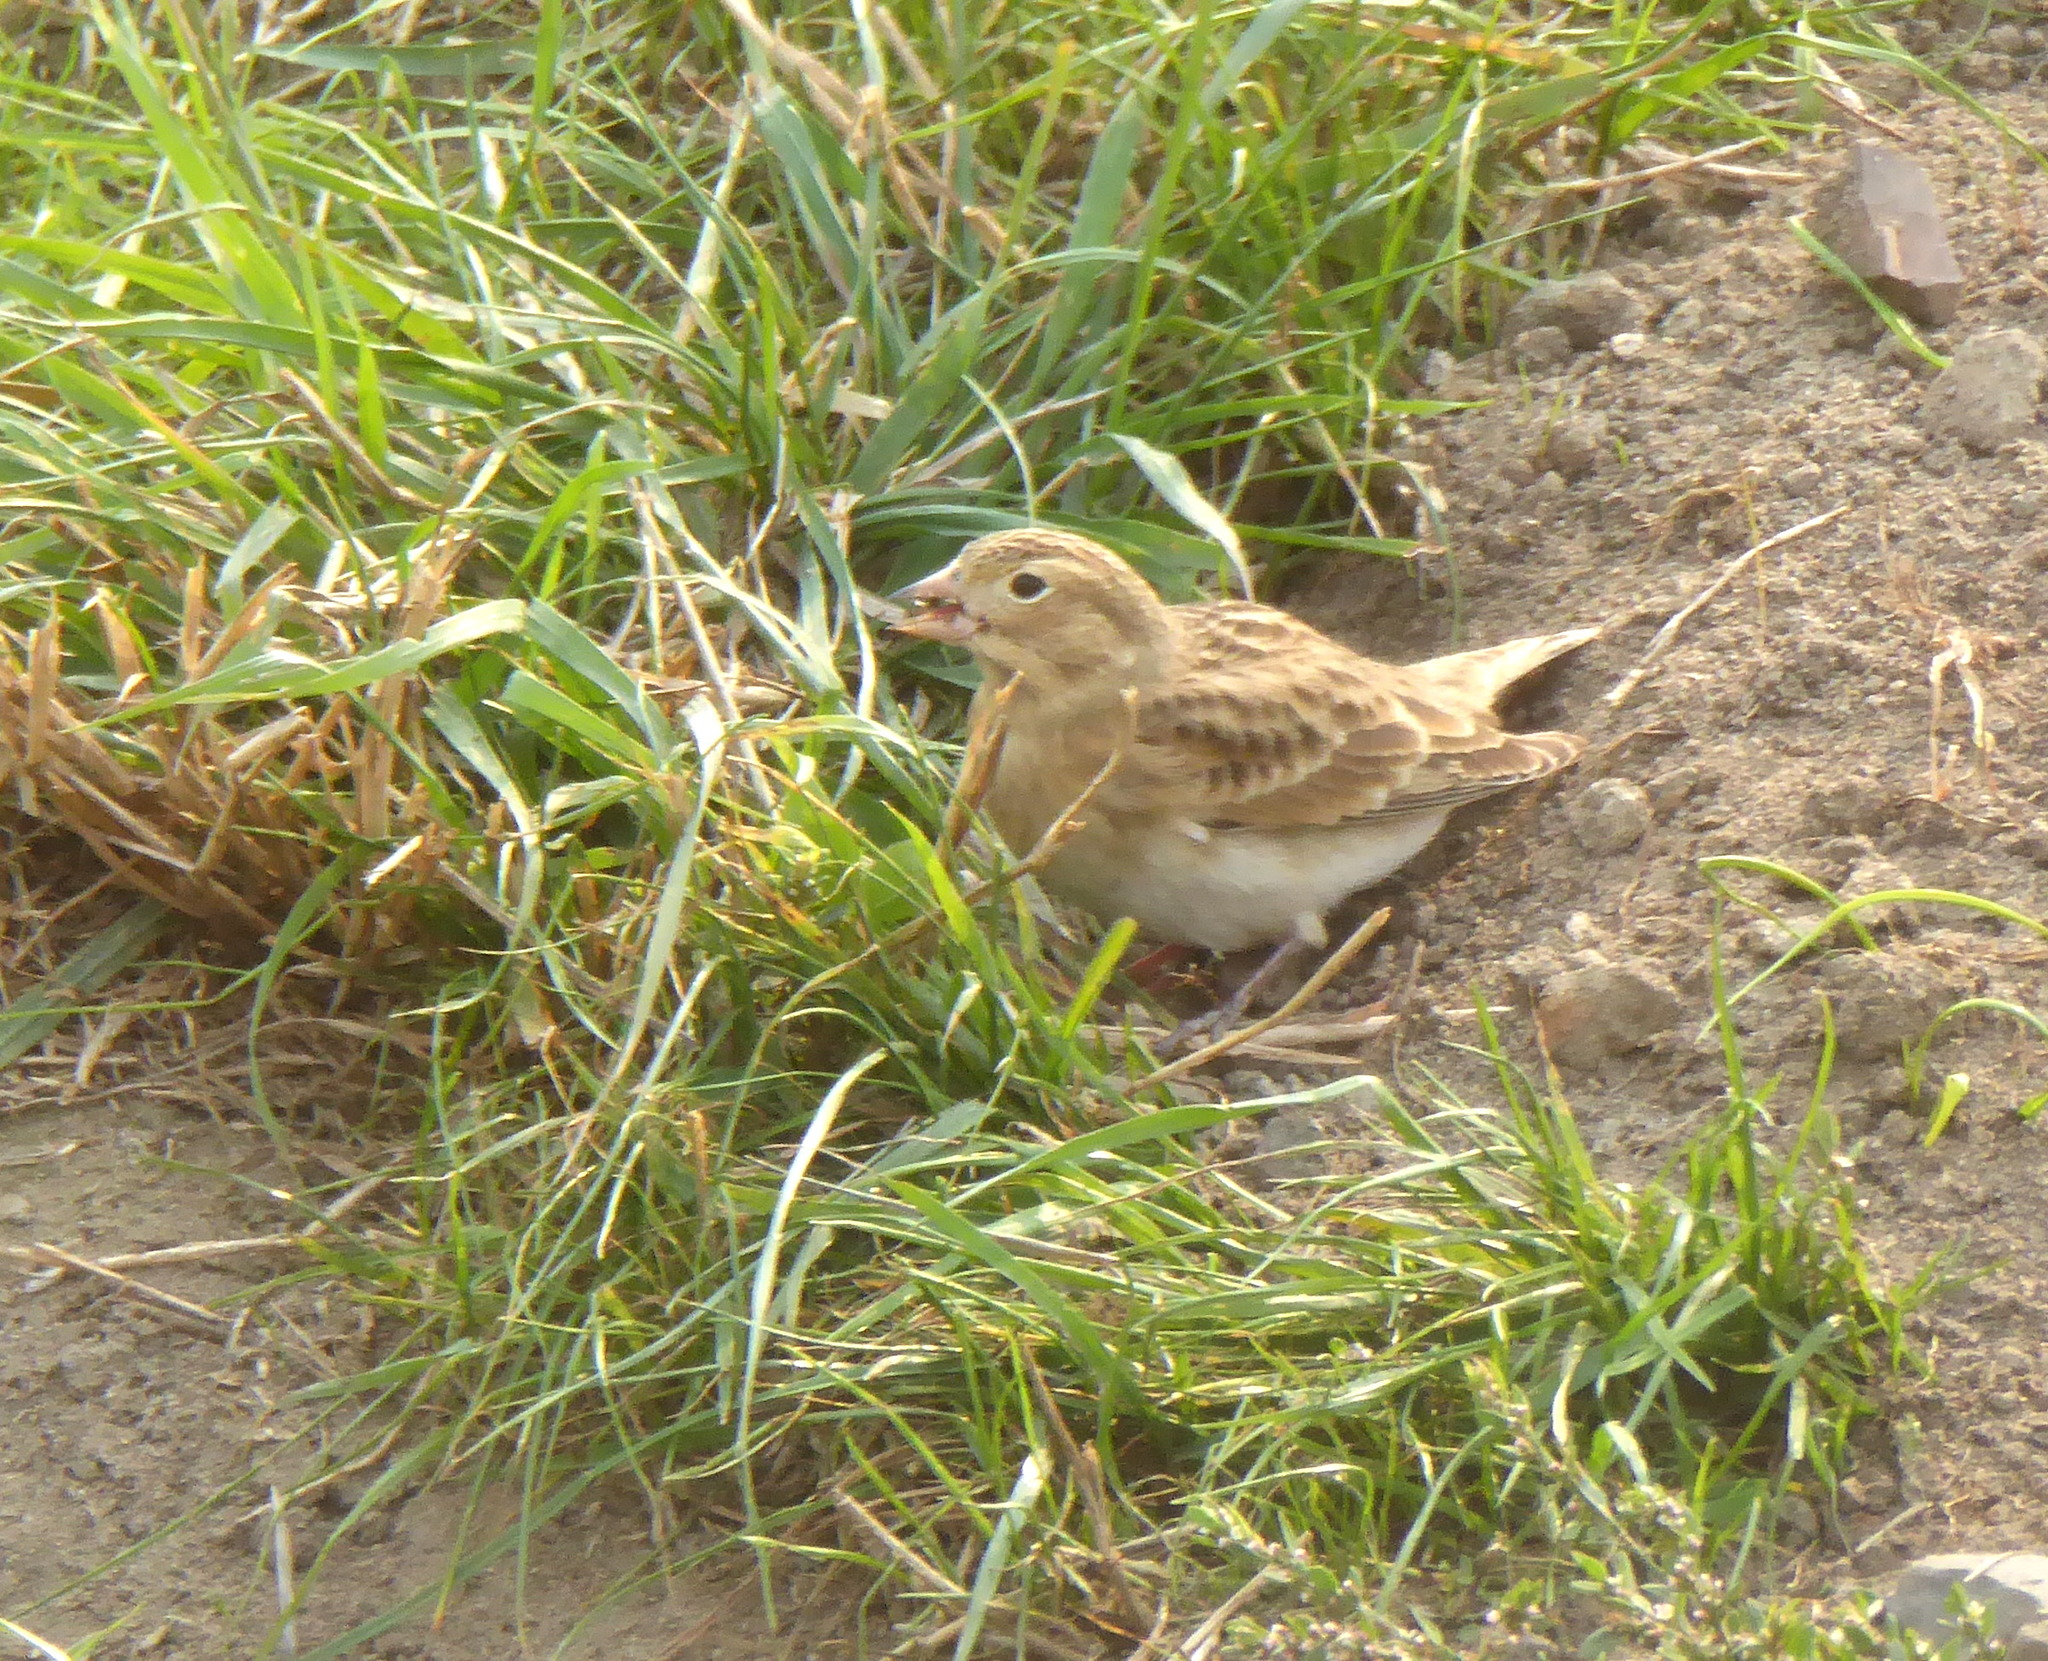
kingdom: Animalia
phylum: Chordata
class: Aves
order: Passeriformes
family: Calcariidae
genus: Rhynchophanes
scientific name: Rhynchophanes mccownii
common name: Mccown's longspur
